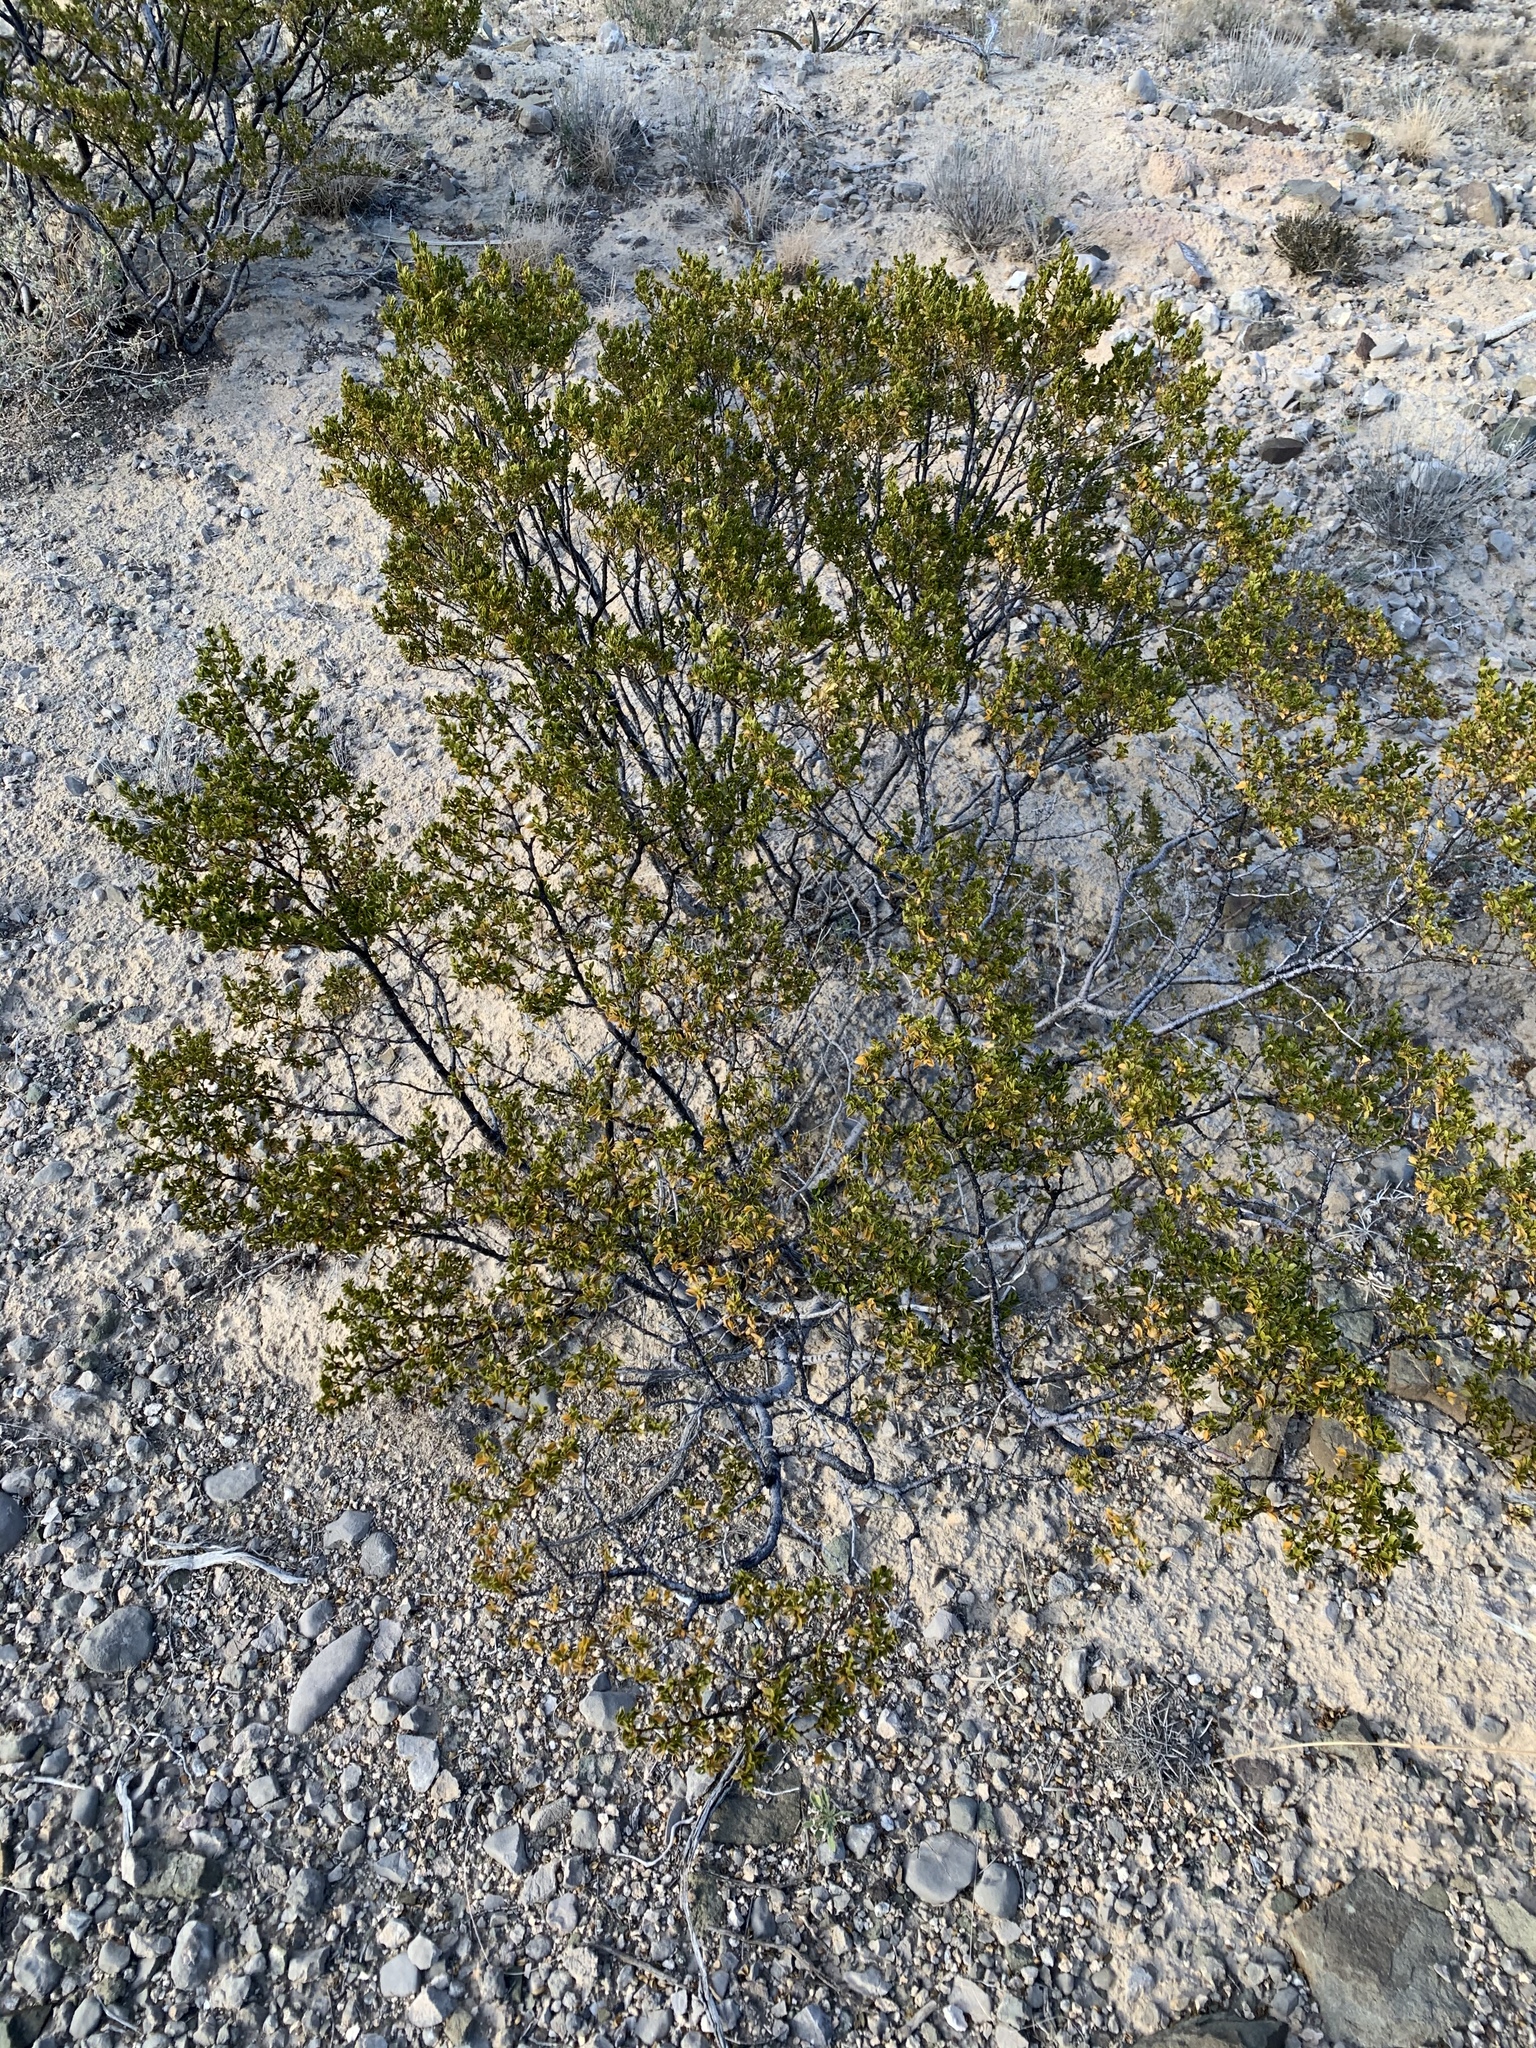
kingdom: Plantae
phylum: Tracheophyta
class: Magnoliopsida
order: Zygophyllales
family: Zygophyllaceae
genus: Larrea
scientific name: Larrea tridentata
